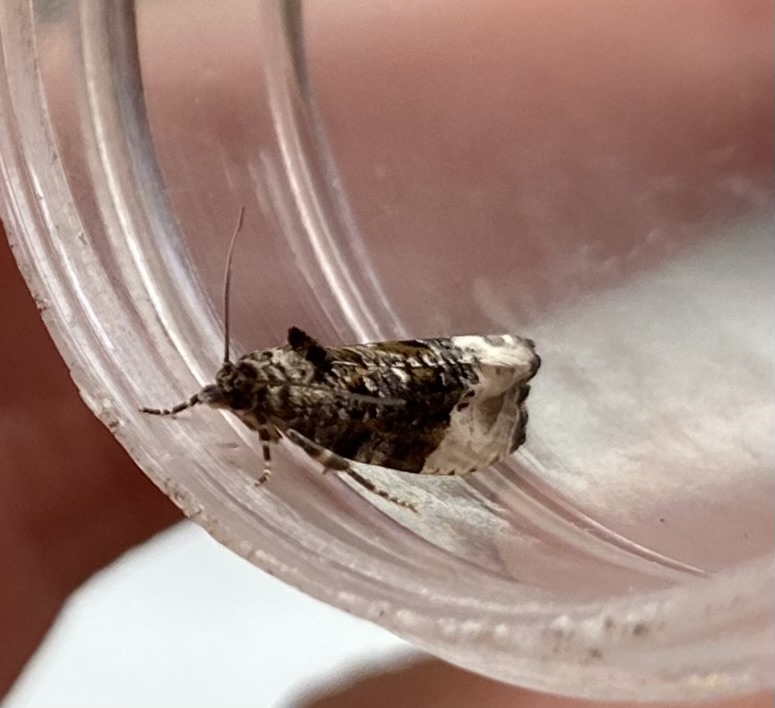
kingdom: Animalia
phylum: Arthropoda
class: Insecta
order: Lepidoptera
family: Tortricidae
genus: Hedya
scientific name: Hedya nubiferana
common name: Marbled orchard tortrix
